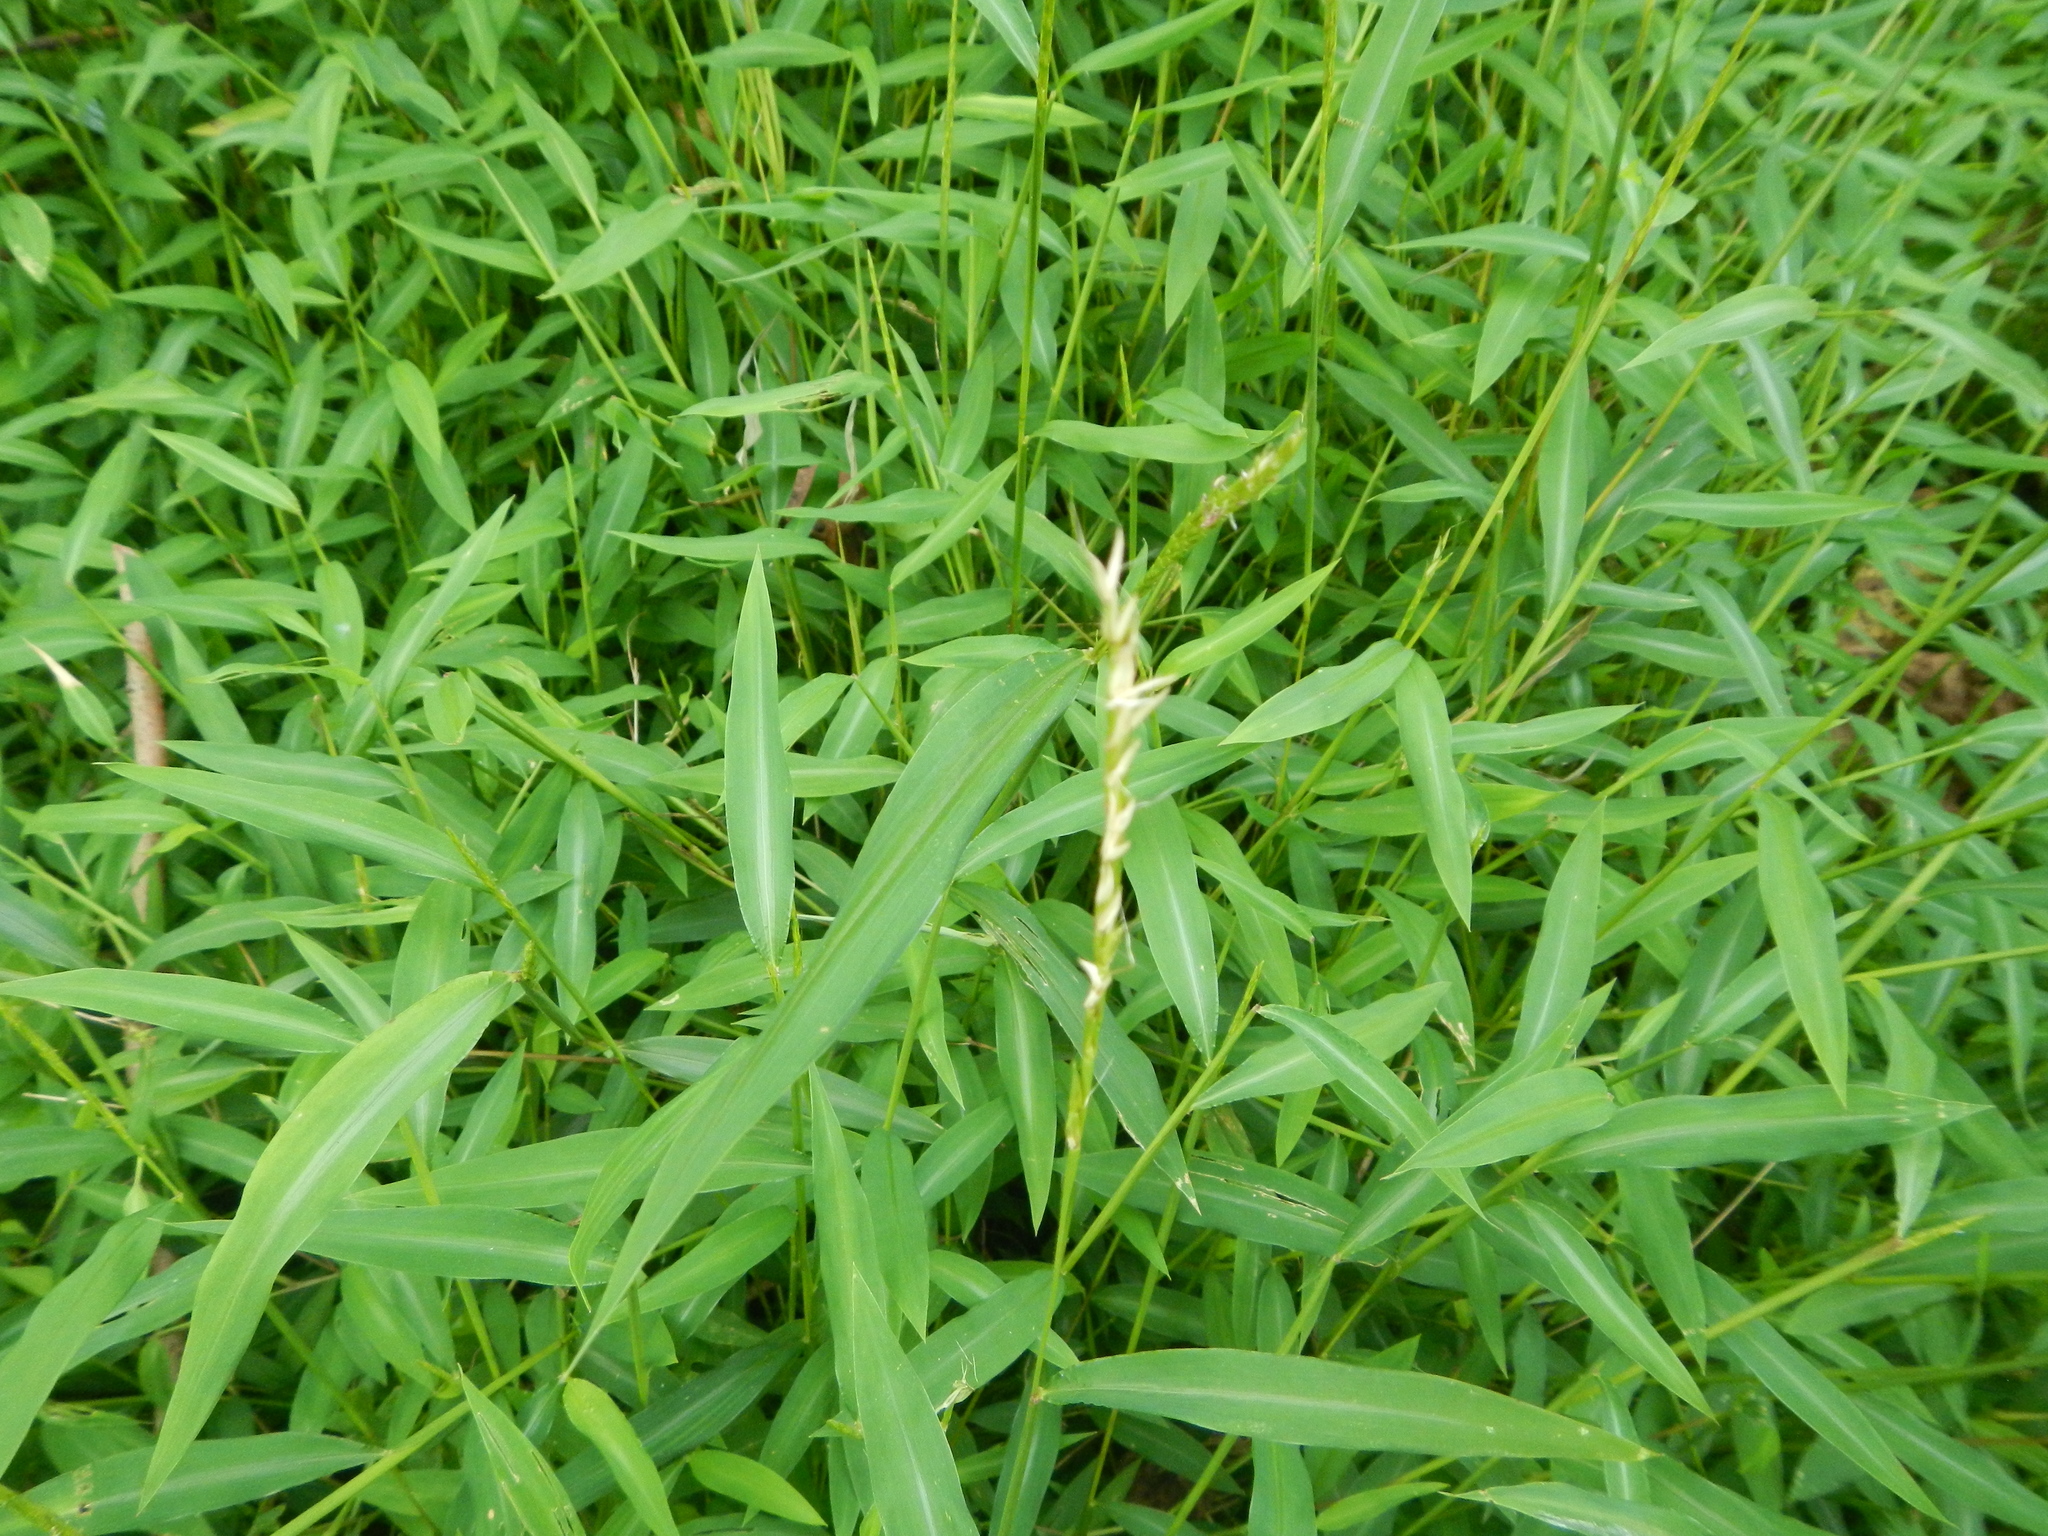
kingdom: Plantae
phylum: Tracheophyta
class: Liliopsida
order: Poales
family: Poaceae
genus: Microstegium
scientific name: Microstegium vimineum
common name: Japanese stiltgrass
